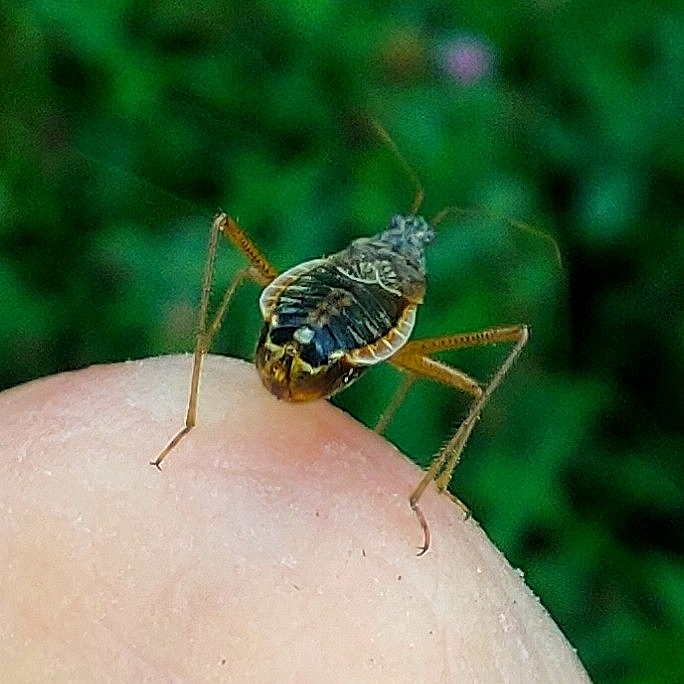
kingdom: Animalia
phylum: Arthropoda
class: Insecta
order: Hemiptera
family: Nabidae
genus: Nabis
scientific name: Nabis flavomarginatus
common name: Broad damselbug
